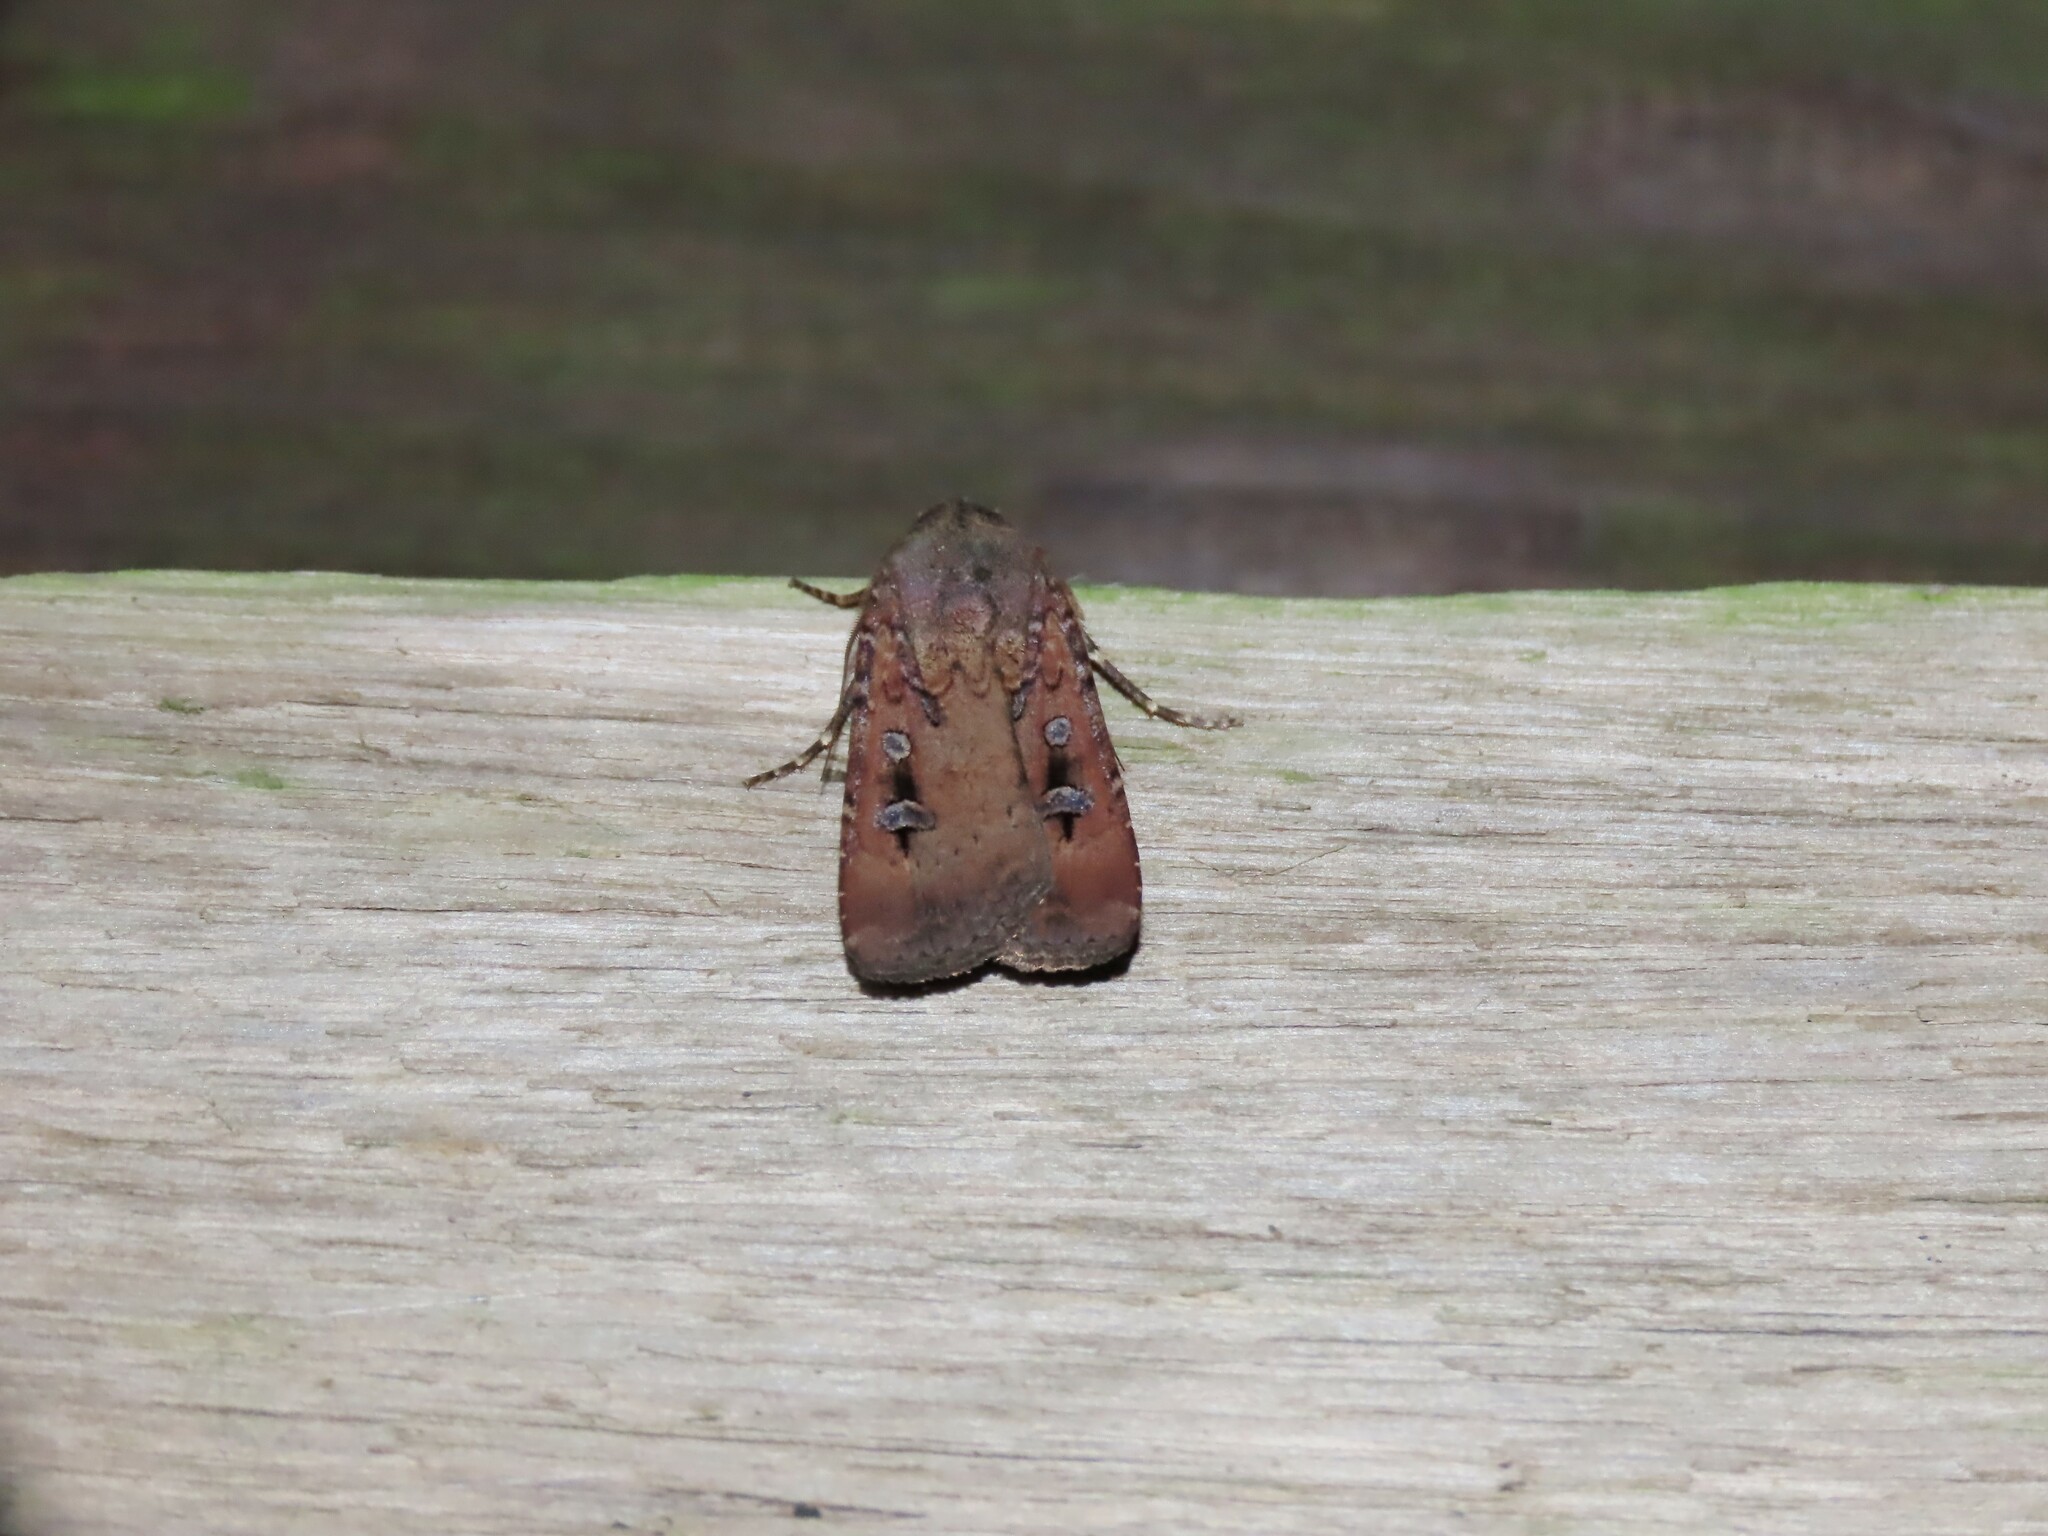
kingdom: Animalia
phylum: Arthropoda
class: Insecta
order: Lepidoptera
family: Noctuidae
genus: Agrotis
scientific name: Agrotis infusa
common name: Bogong moth
